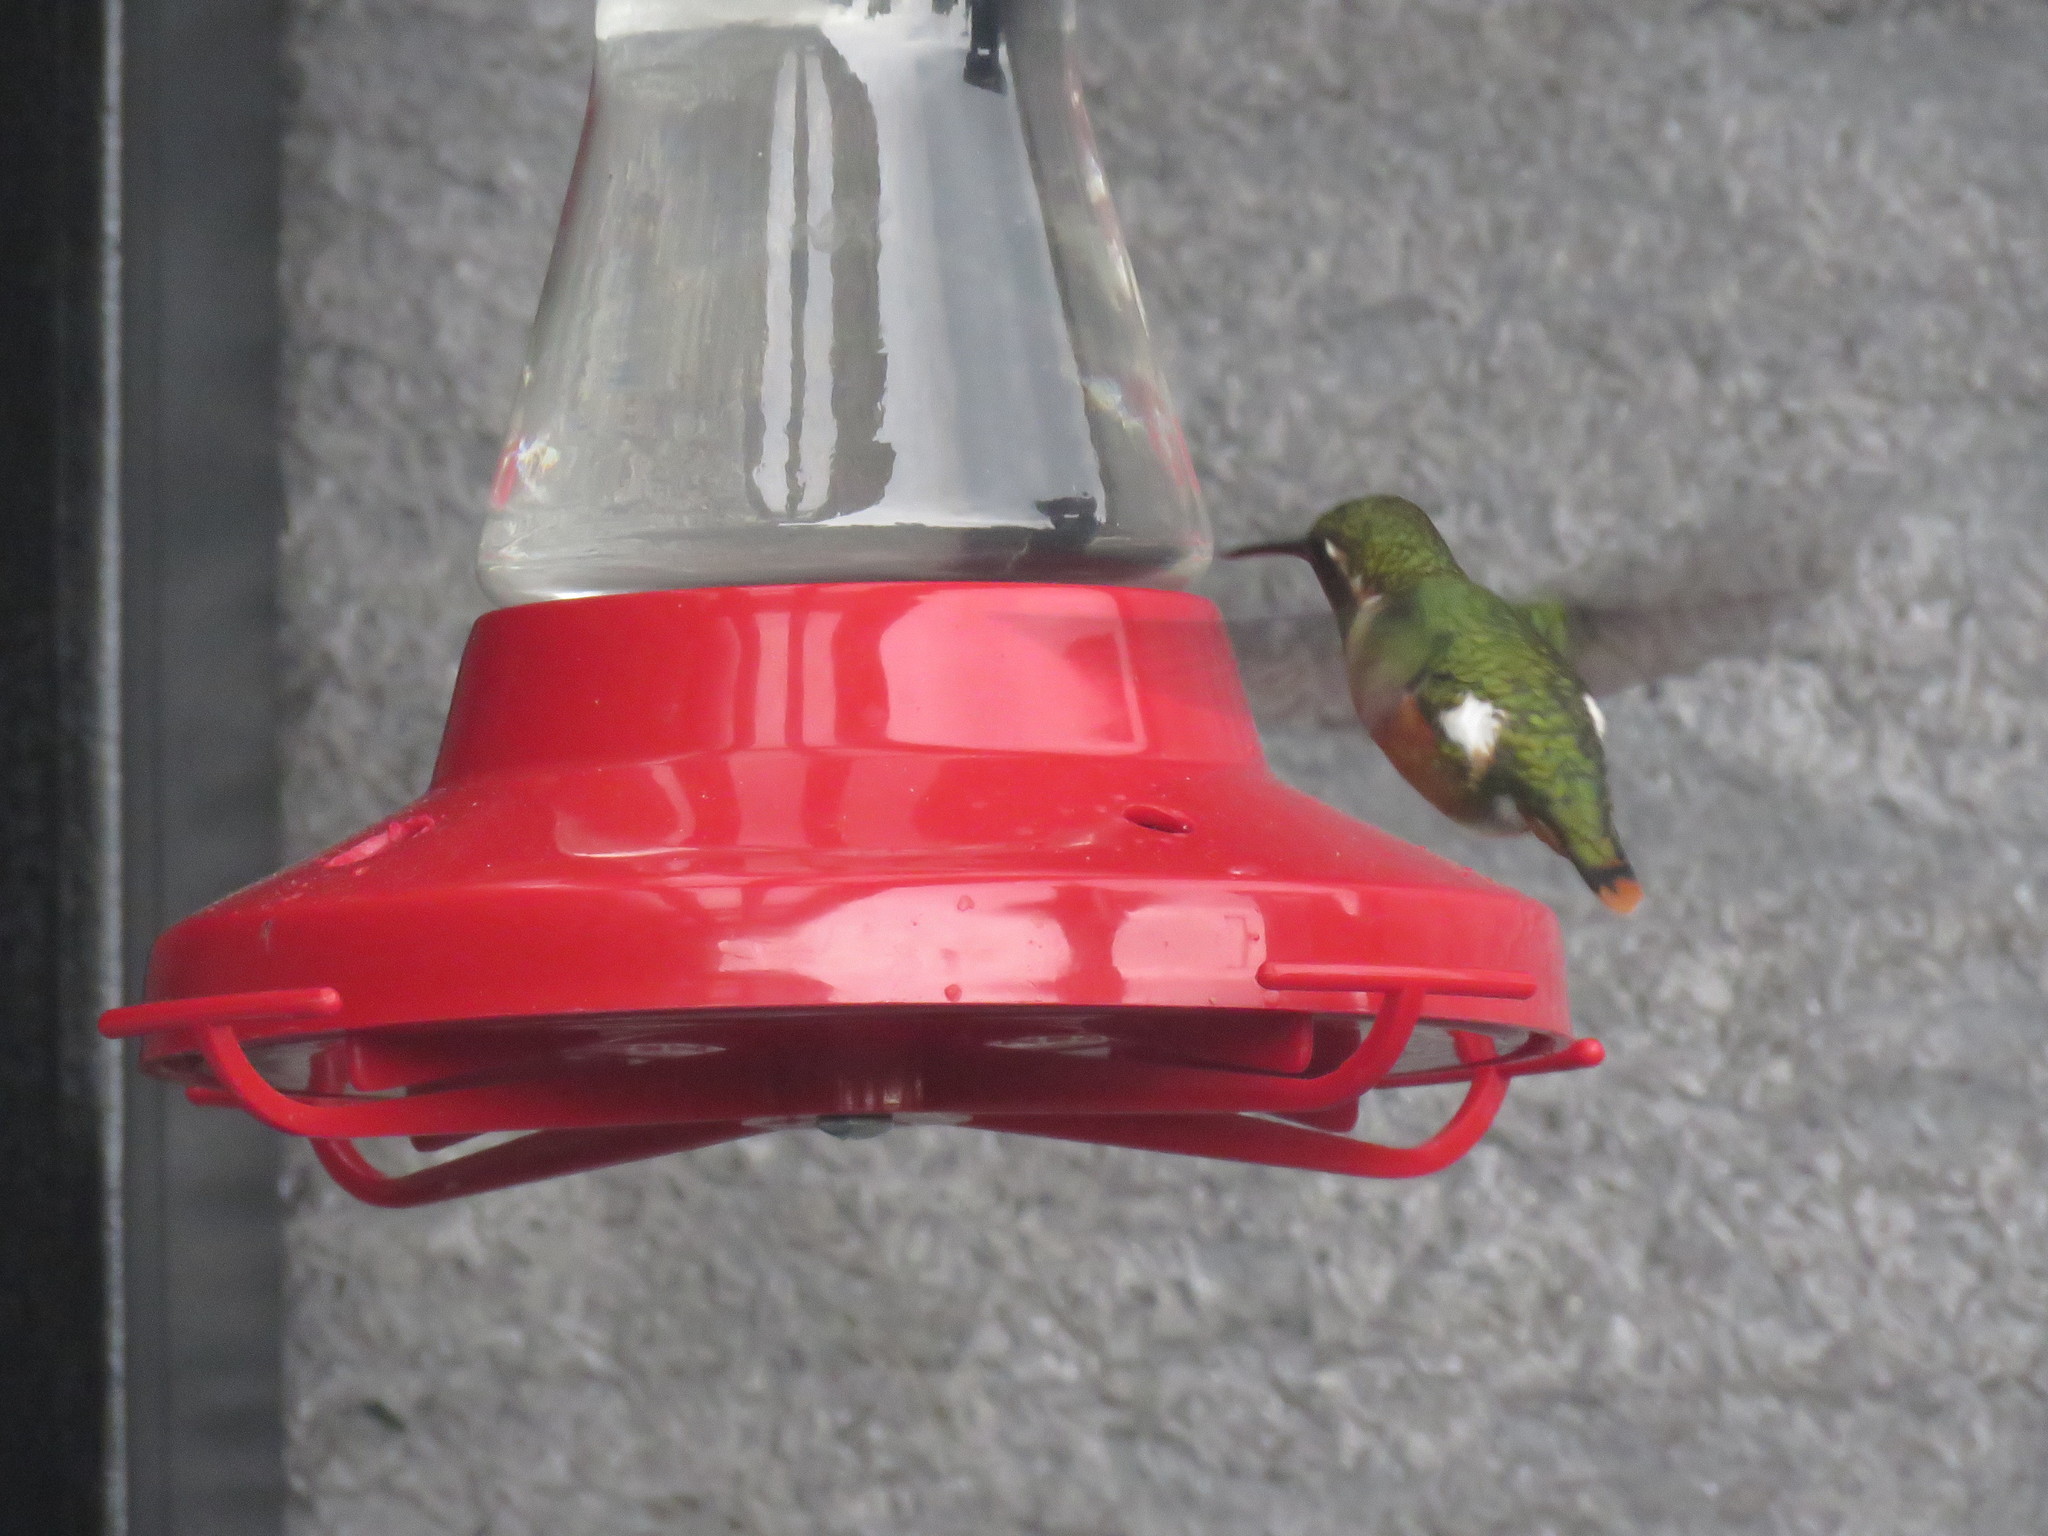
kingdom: Animalia
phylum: Chordata
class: Aves
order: Apodiformes
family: Trochilidae
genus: Chaetocercus
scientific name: Chaetocercus mulsant
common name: White-bellied woodstar
